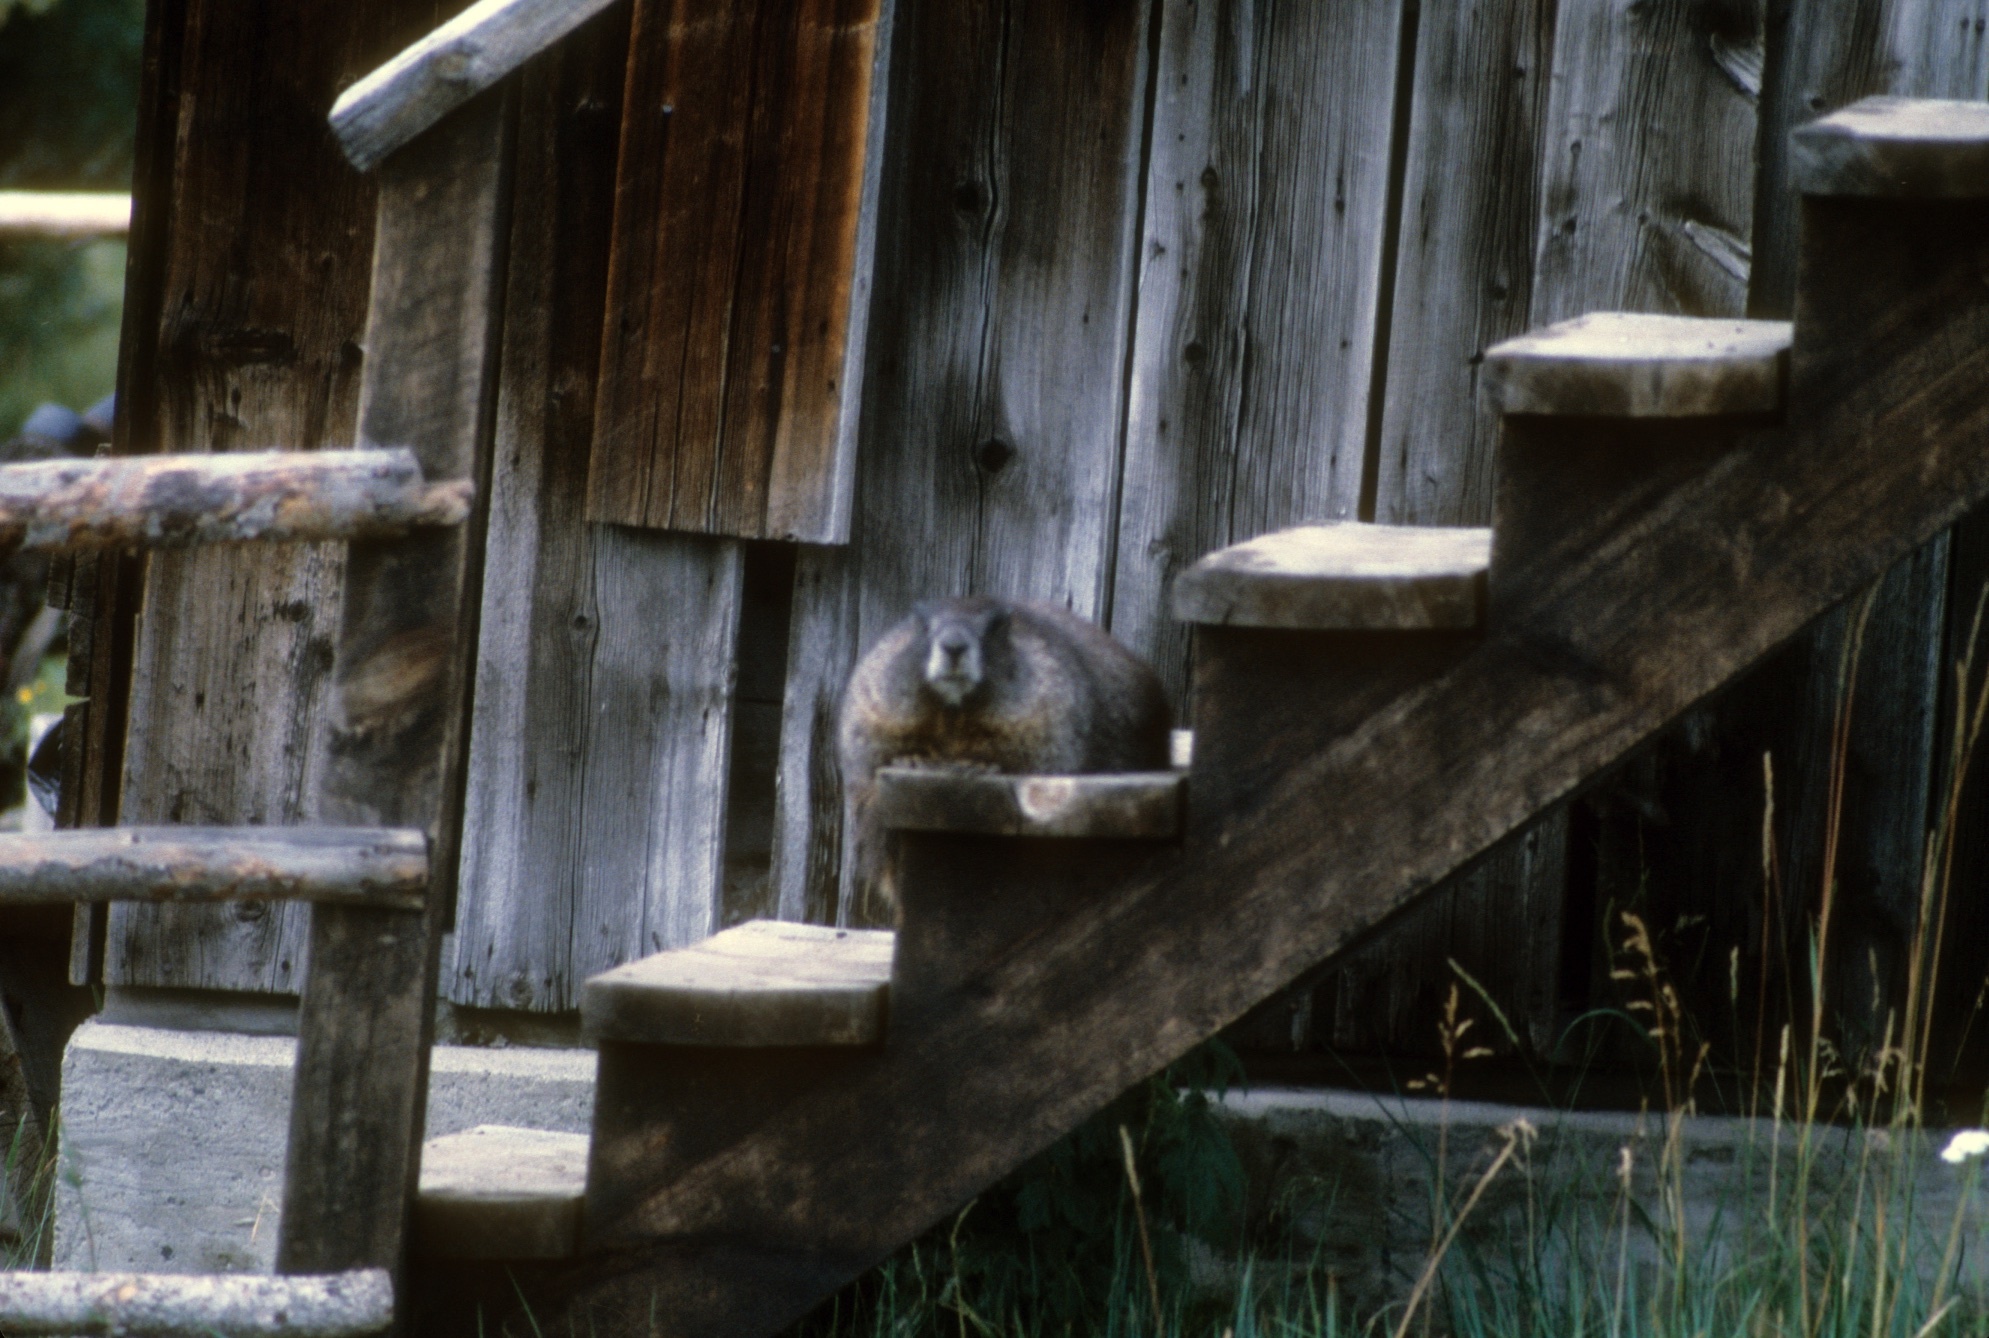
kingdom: Animalia
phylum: Chordata
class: Mammalia
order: Rodentia
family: Sciuridae
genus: Marmota
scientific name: Marmota flaviventris
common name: Yellow-bellied marmot
